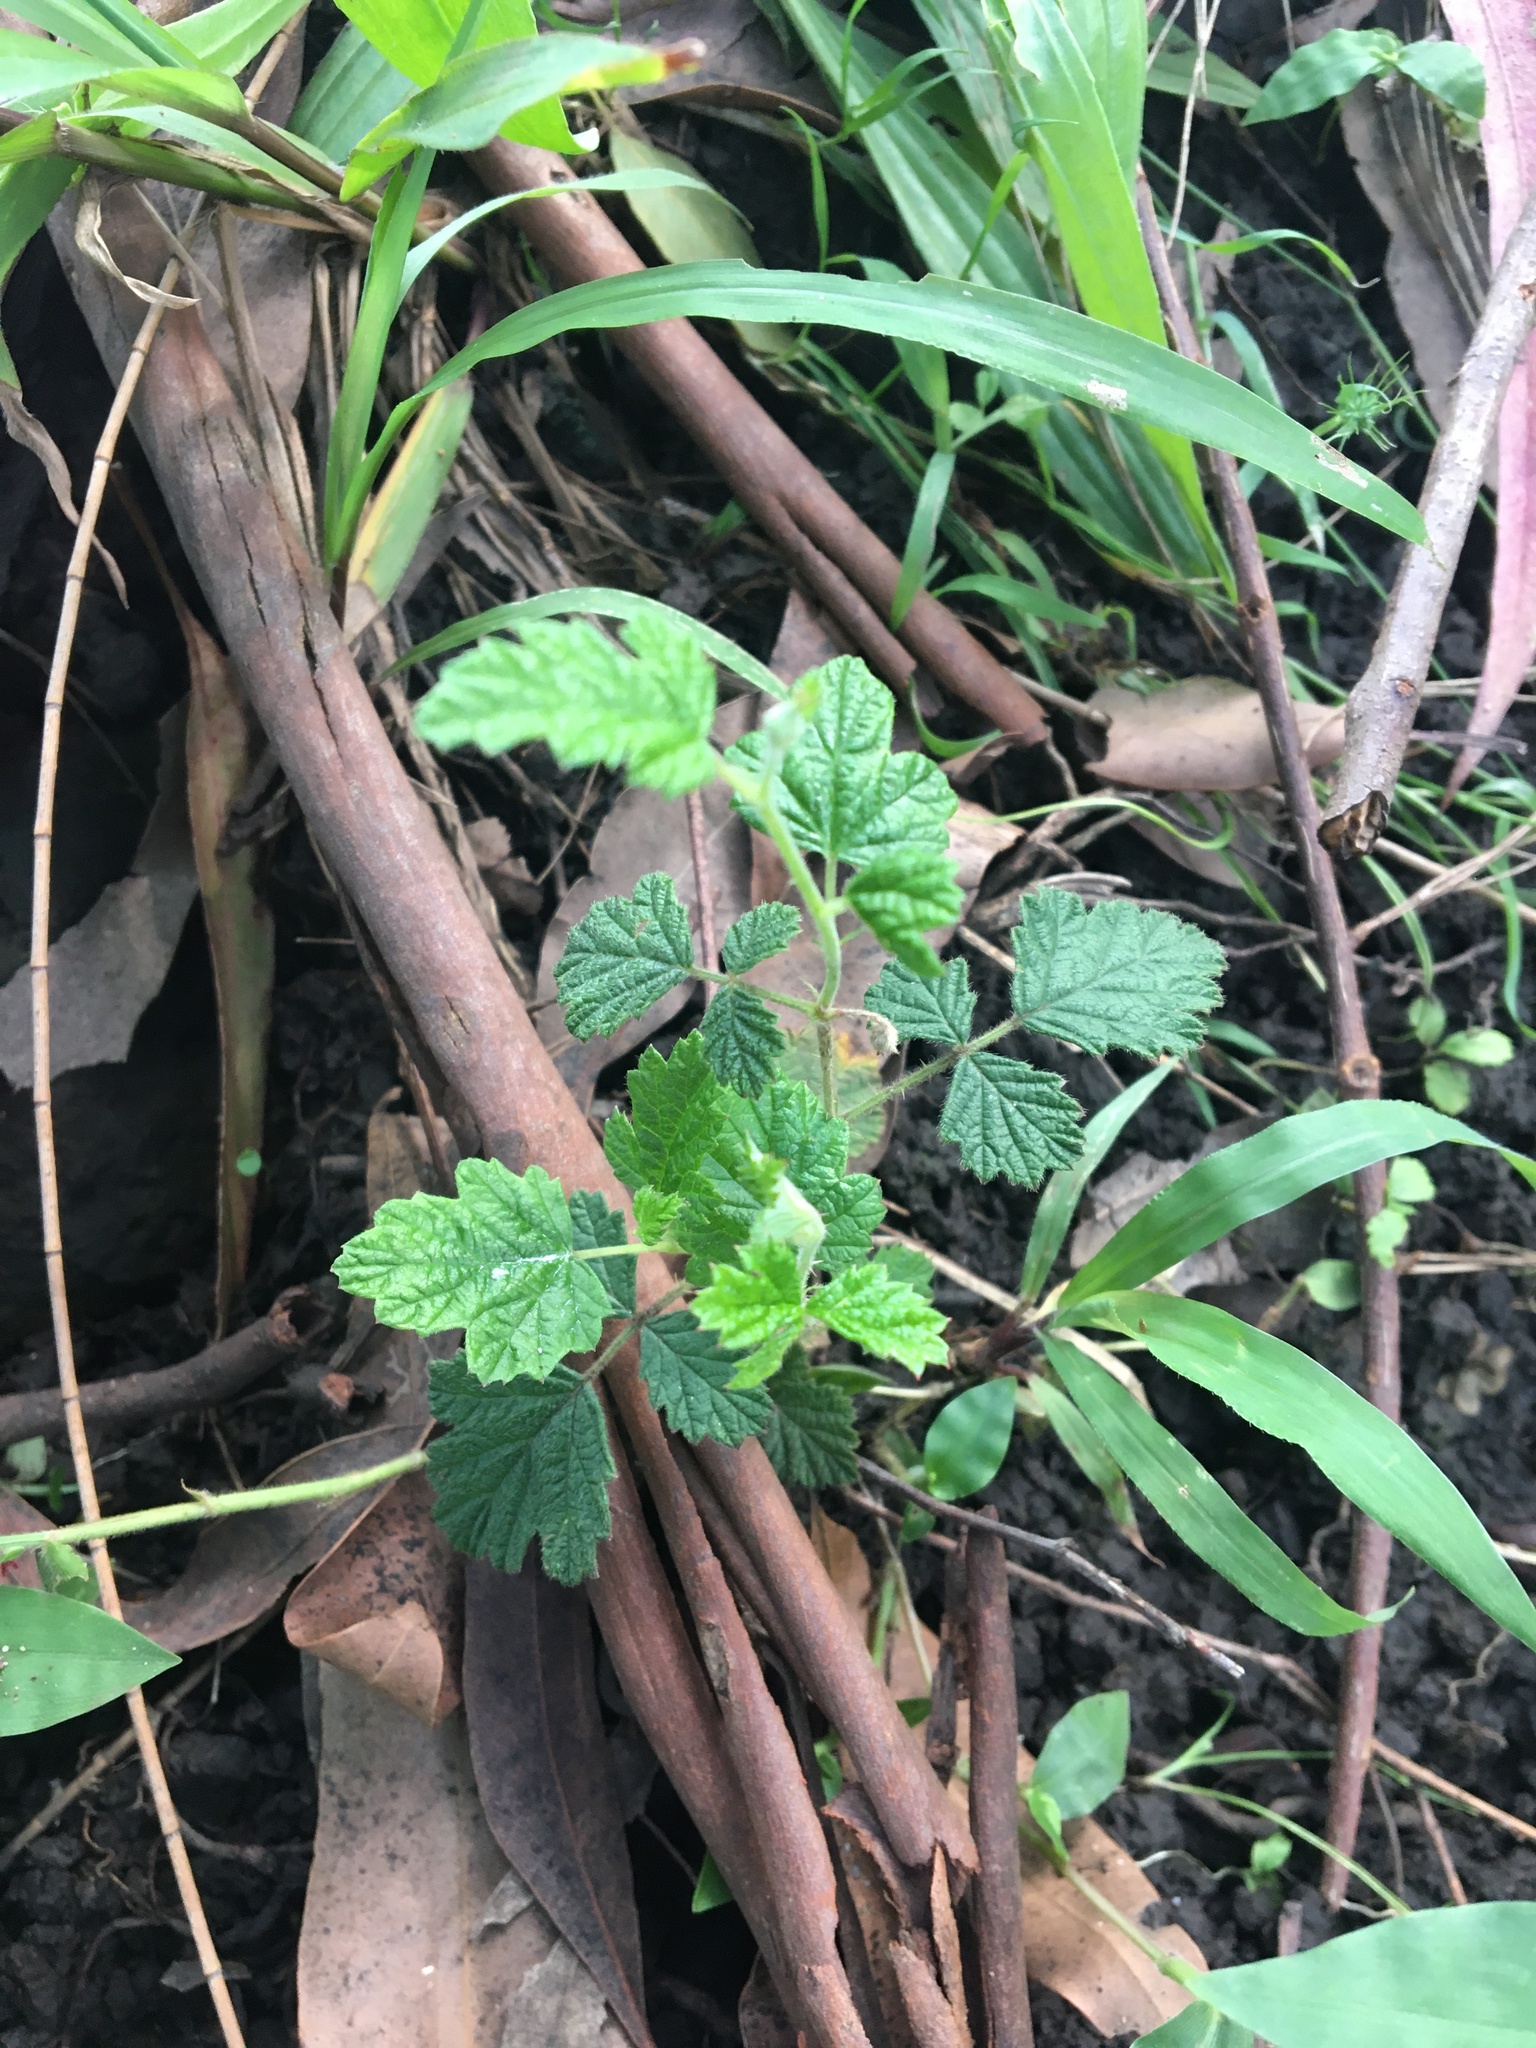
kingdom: Plantae
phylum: Tracheophyta
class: Magnoliopsida
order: Rosales
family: Rosaceae
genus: Rubus
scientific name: Rubus parvifolius
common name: Threeleaf blackberry
